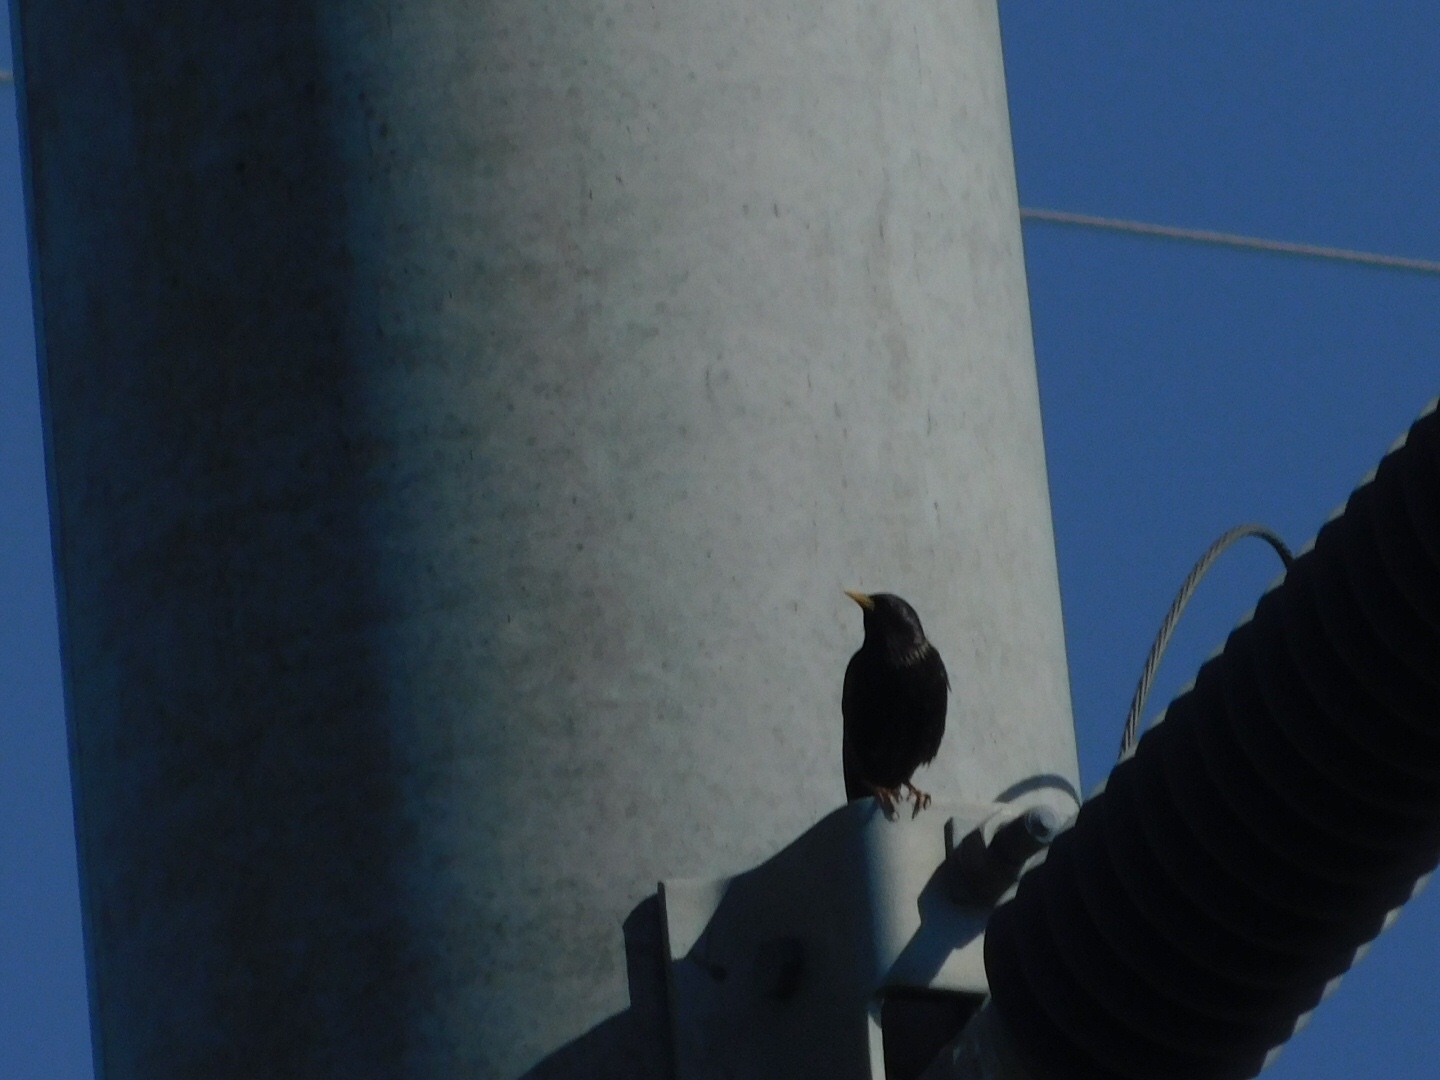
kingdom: Animalia
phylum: Chordata
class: Aves
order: Passeriformes
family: Sturnidae
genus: Sturnus
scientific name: Sturnus vulgaris
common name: Common starling
